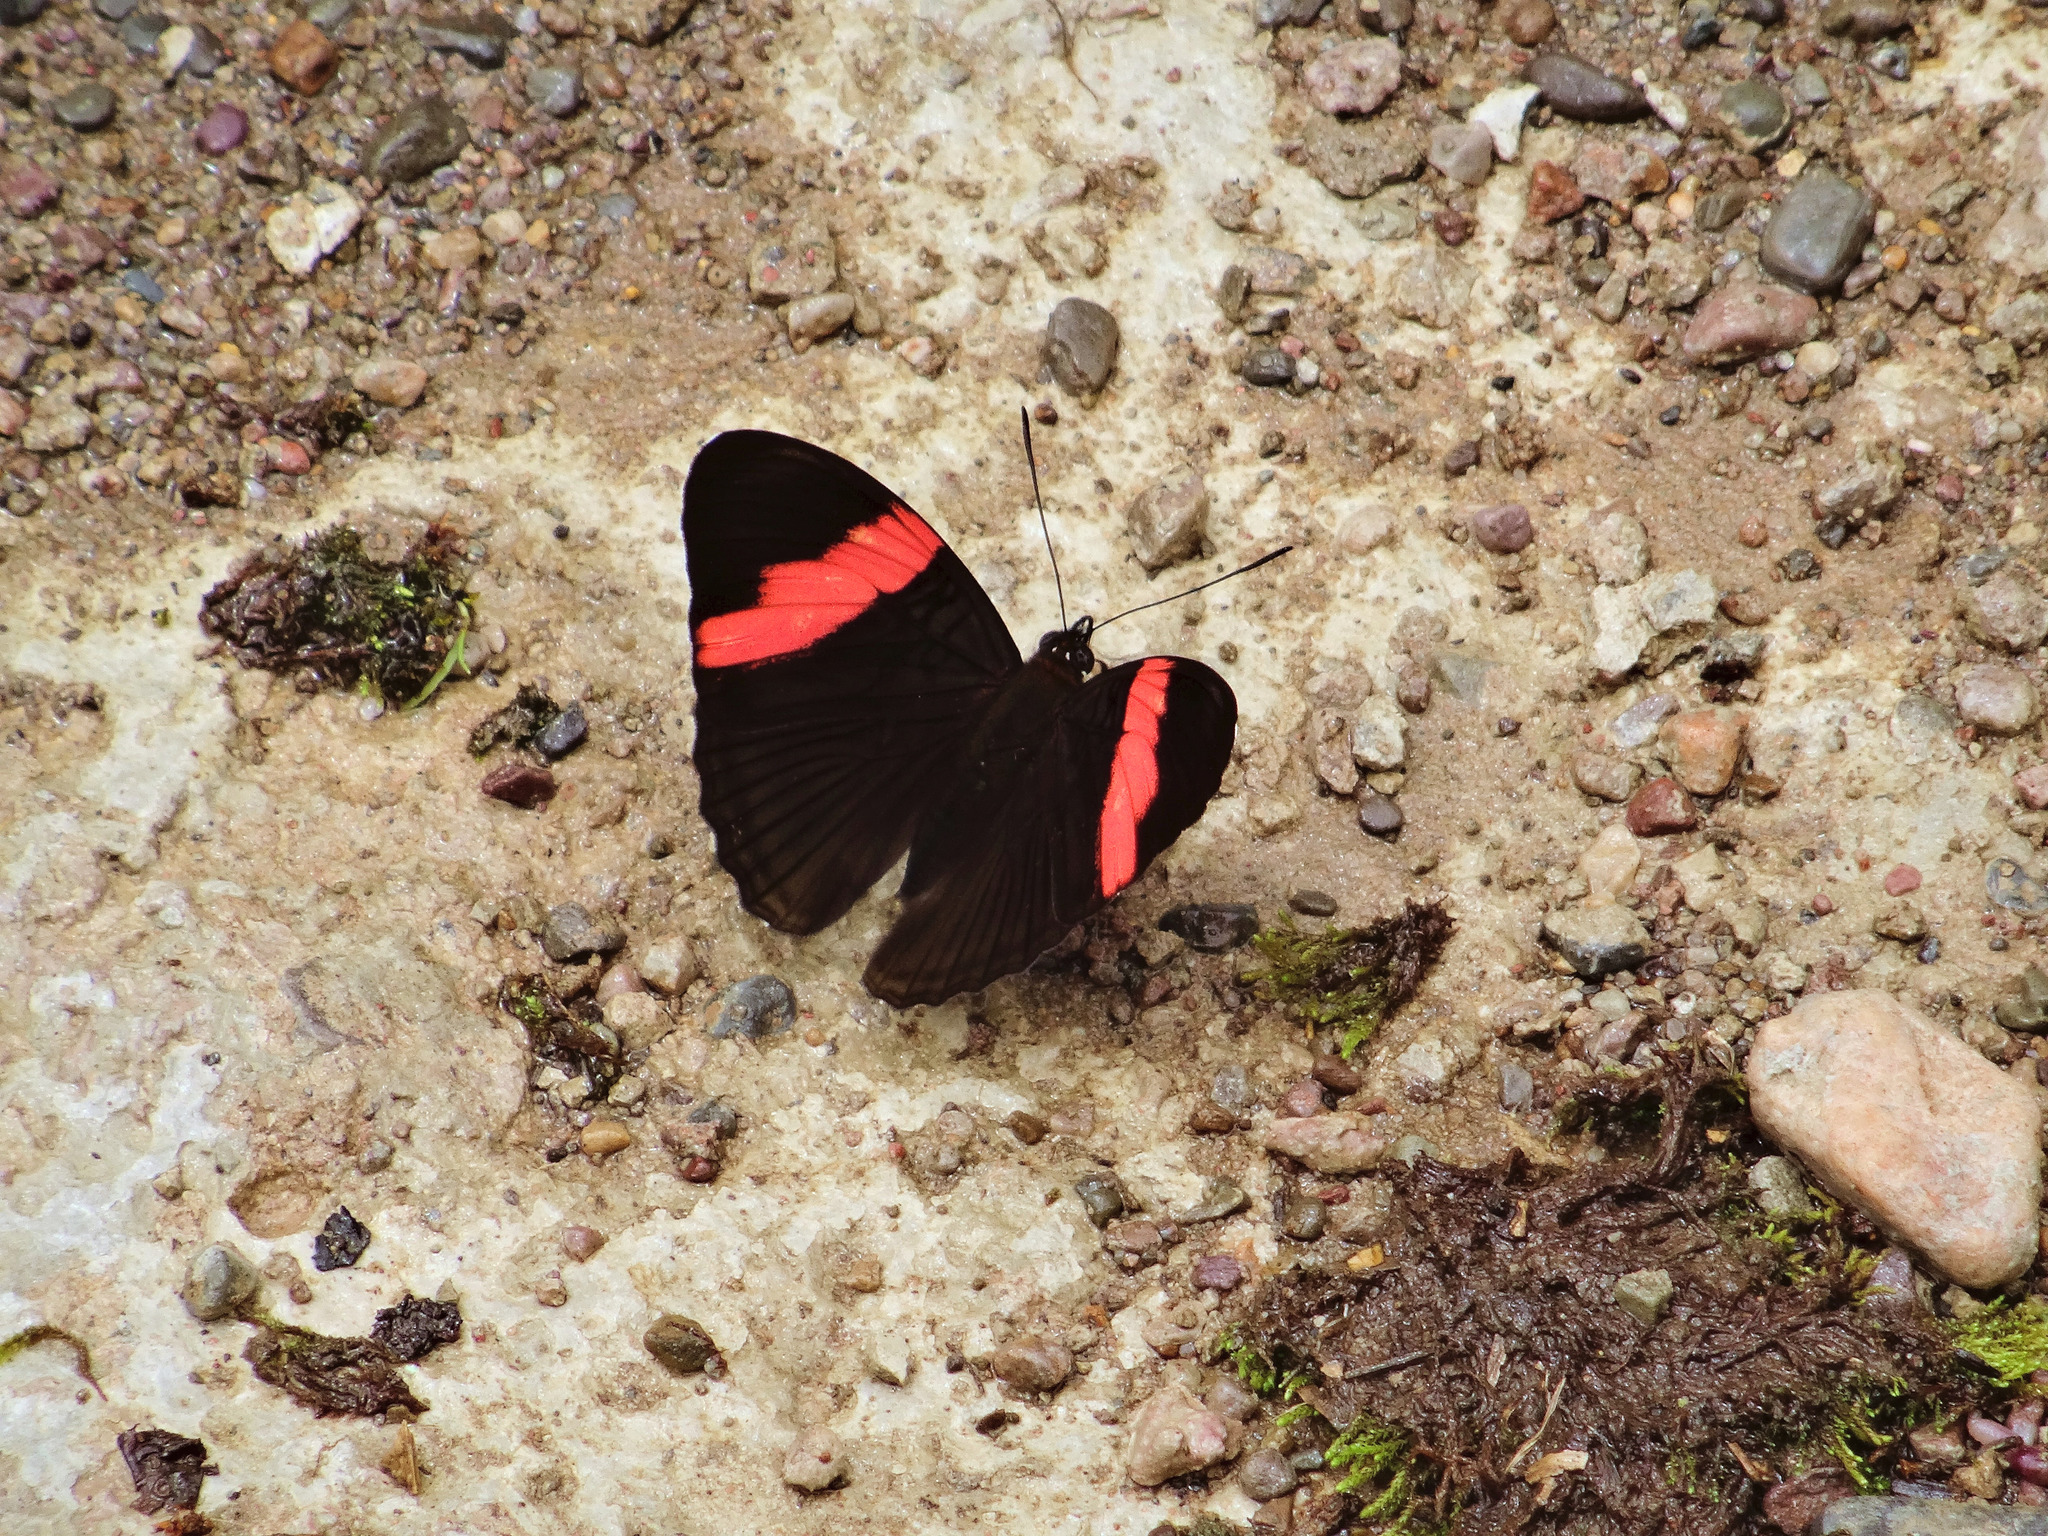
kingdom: Animalia
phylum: Arthropoda
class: Insecta
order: Lepidoptera
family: Nymphalidae
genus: Limenitis
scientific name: Limenitis isis
